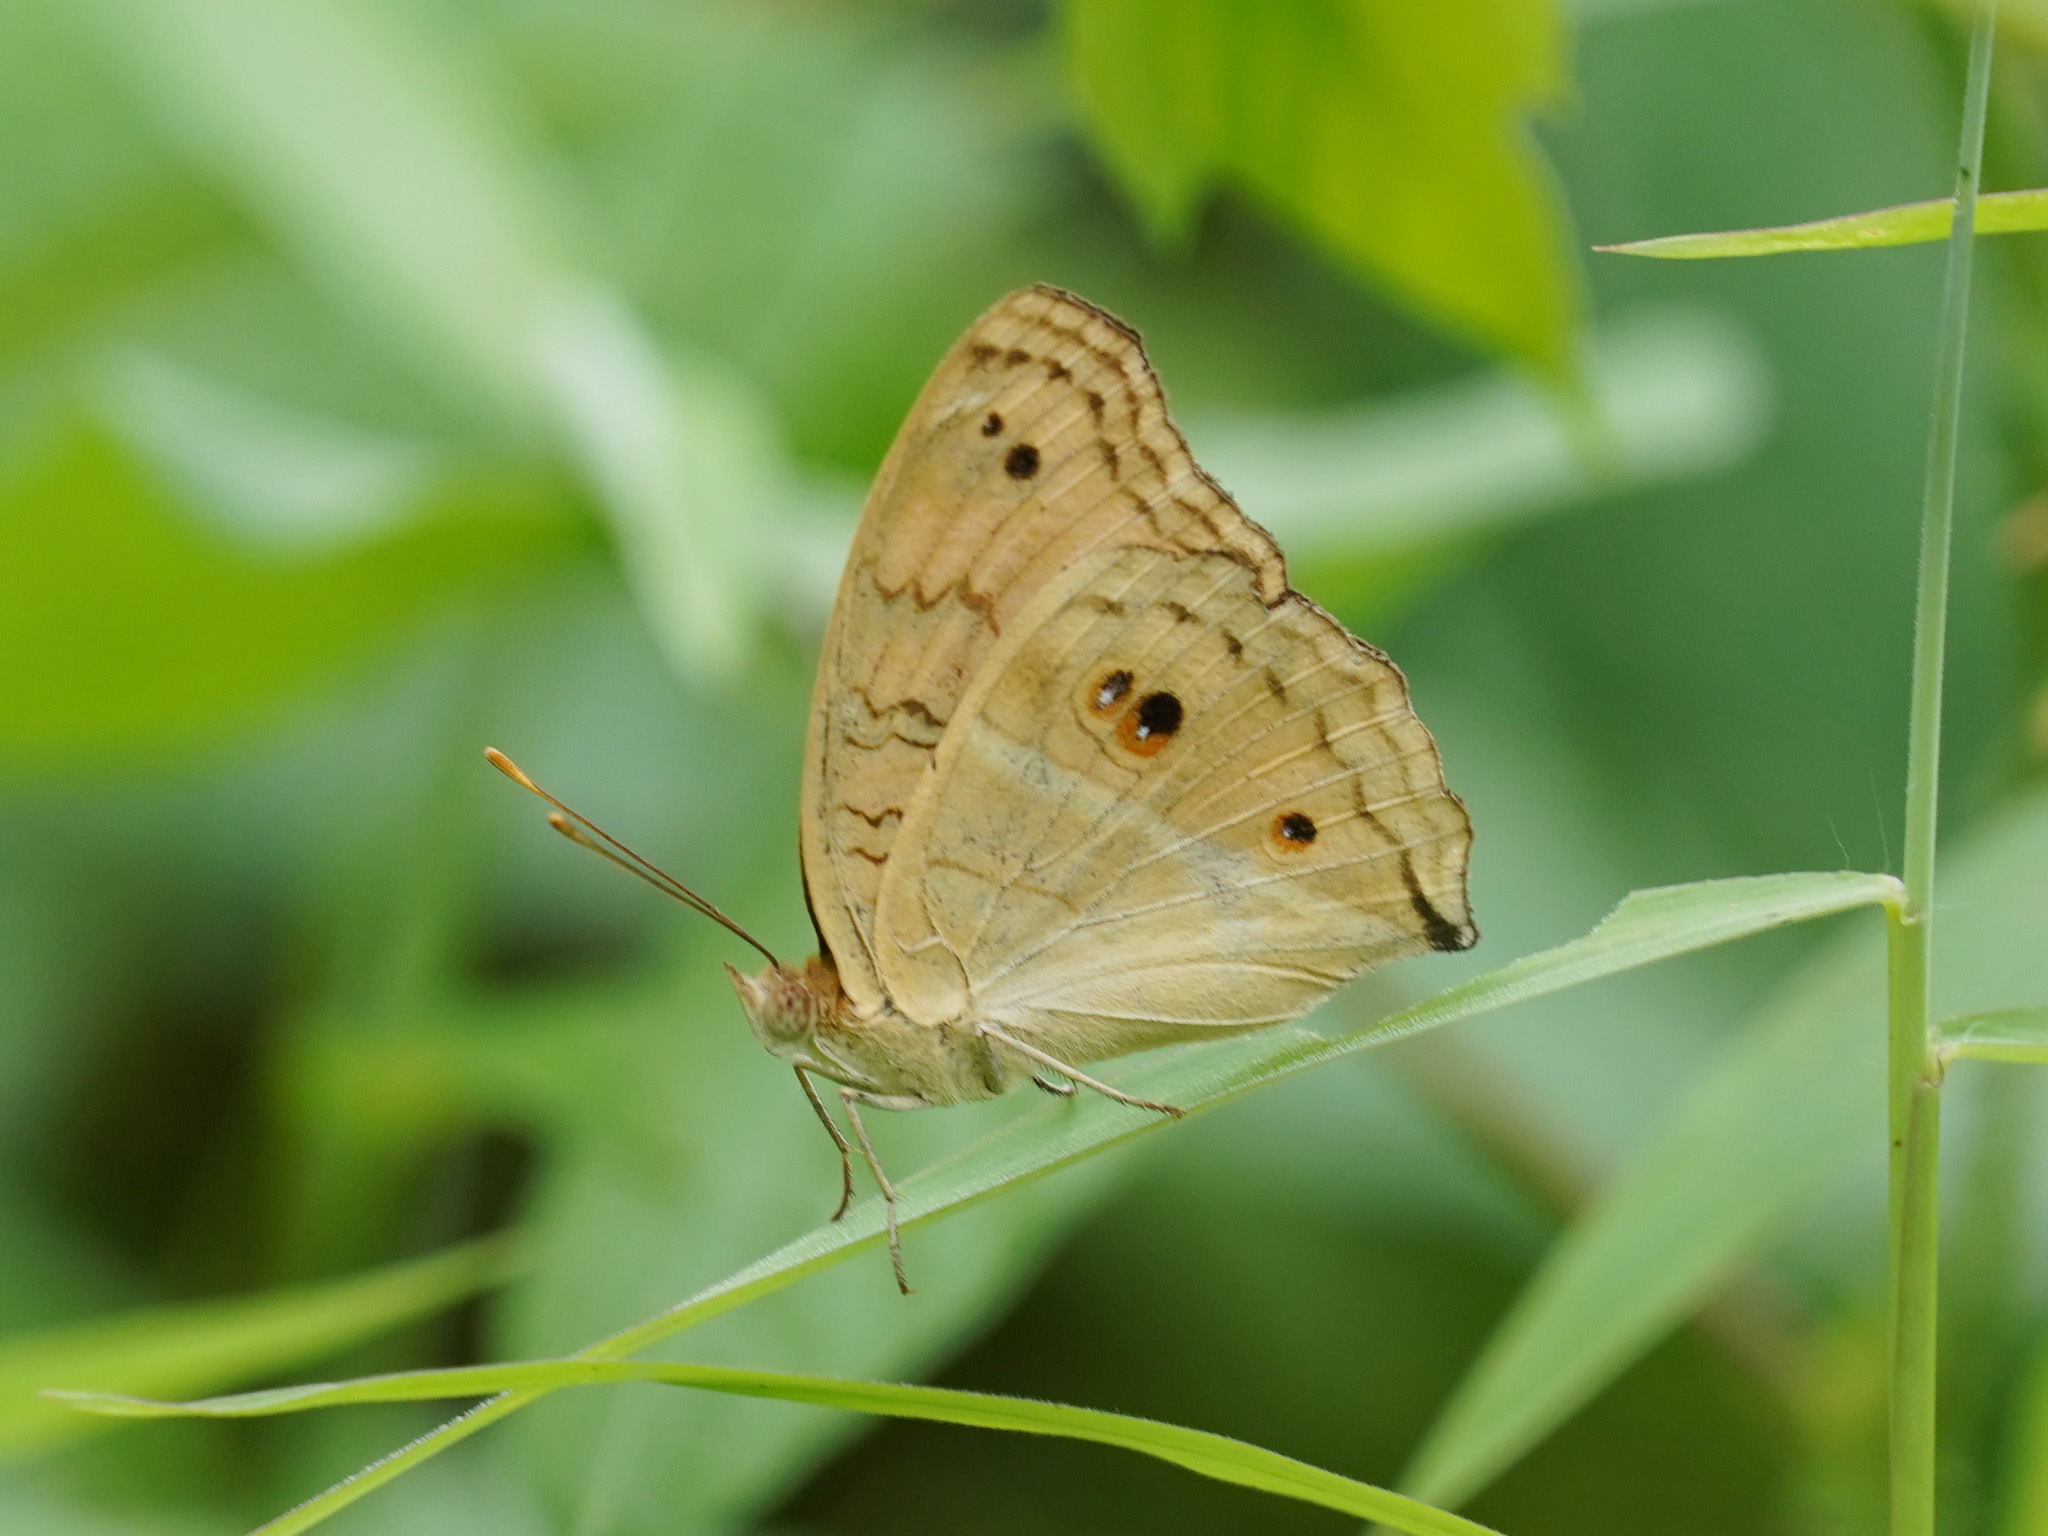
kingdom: Animalia
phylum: Arthropoda
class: Insecta
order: Lepidoptera
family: Nymphalidae
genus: Junonia
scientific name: Junonia almana
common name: Peacock pansy
